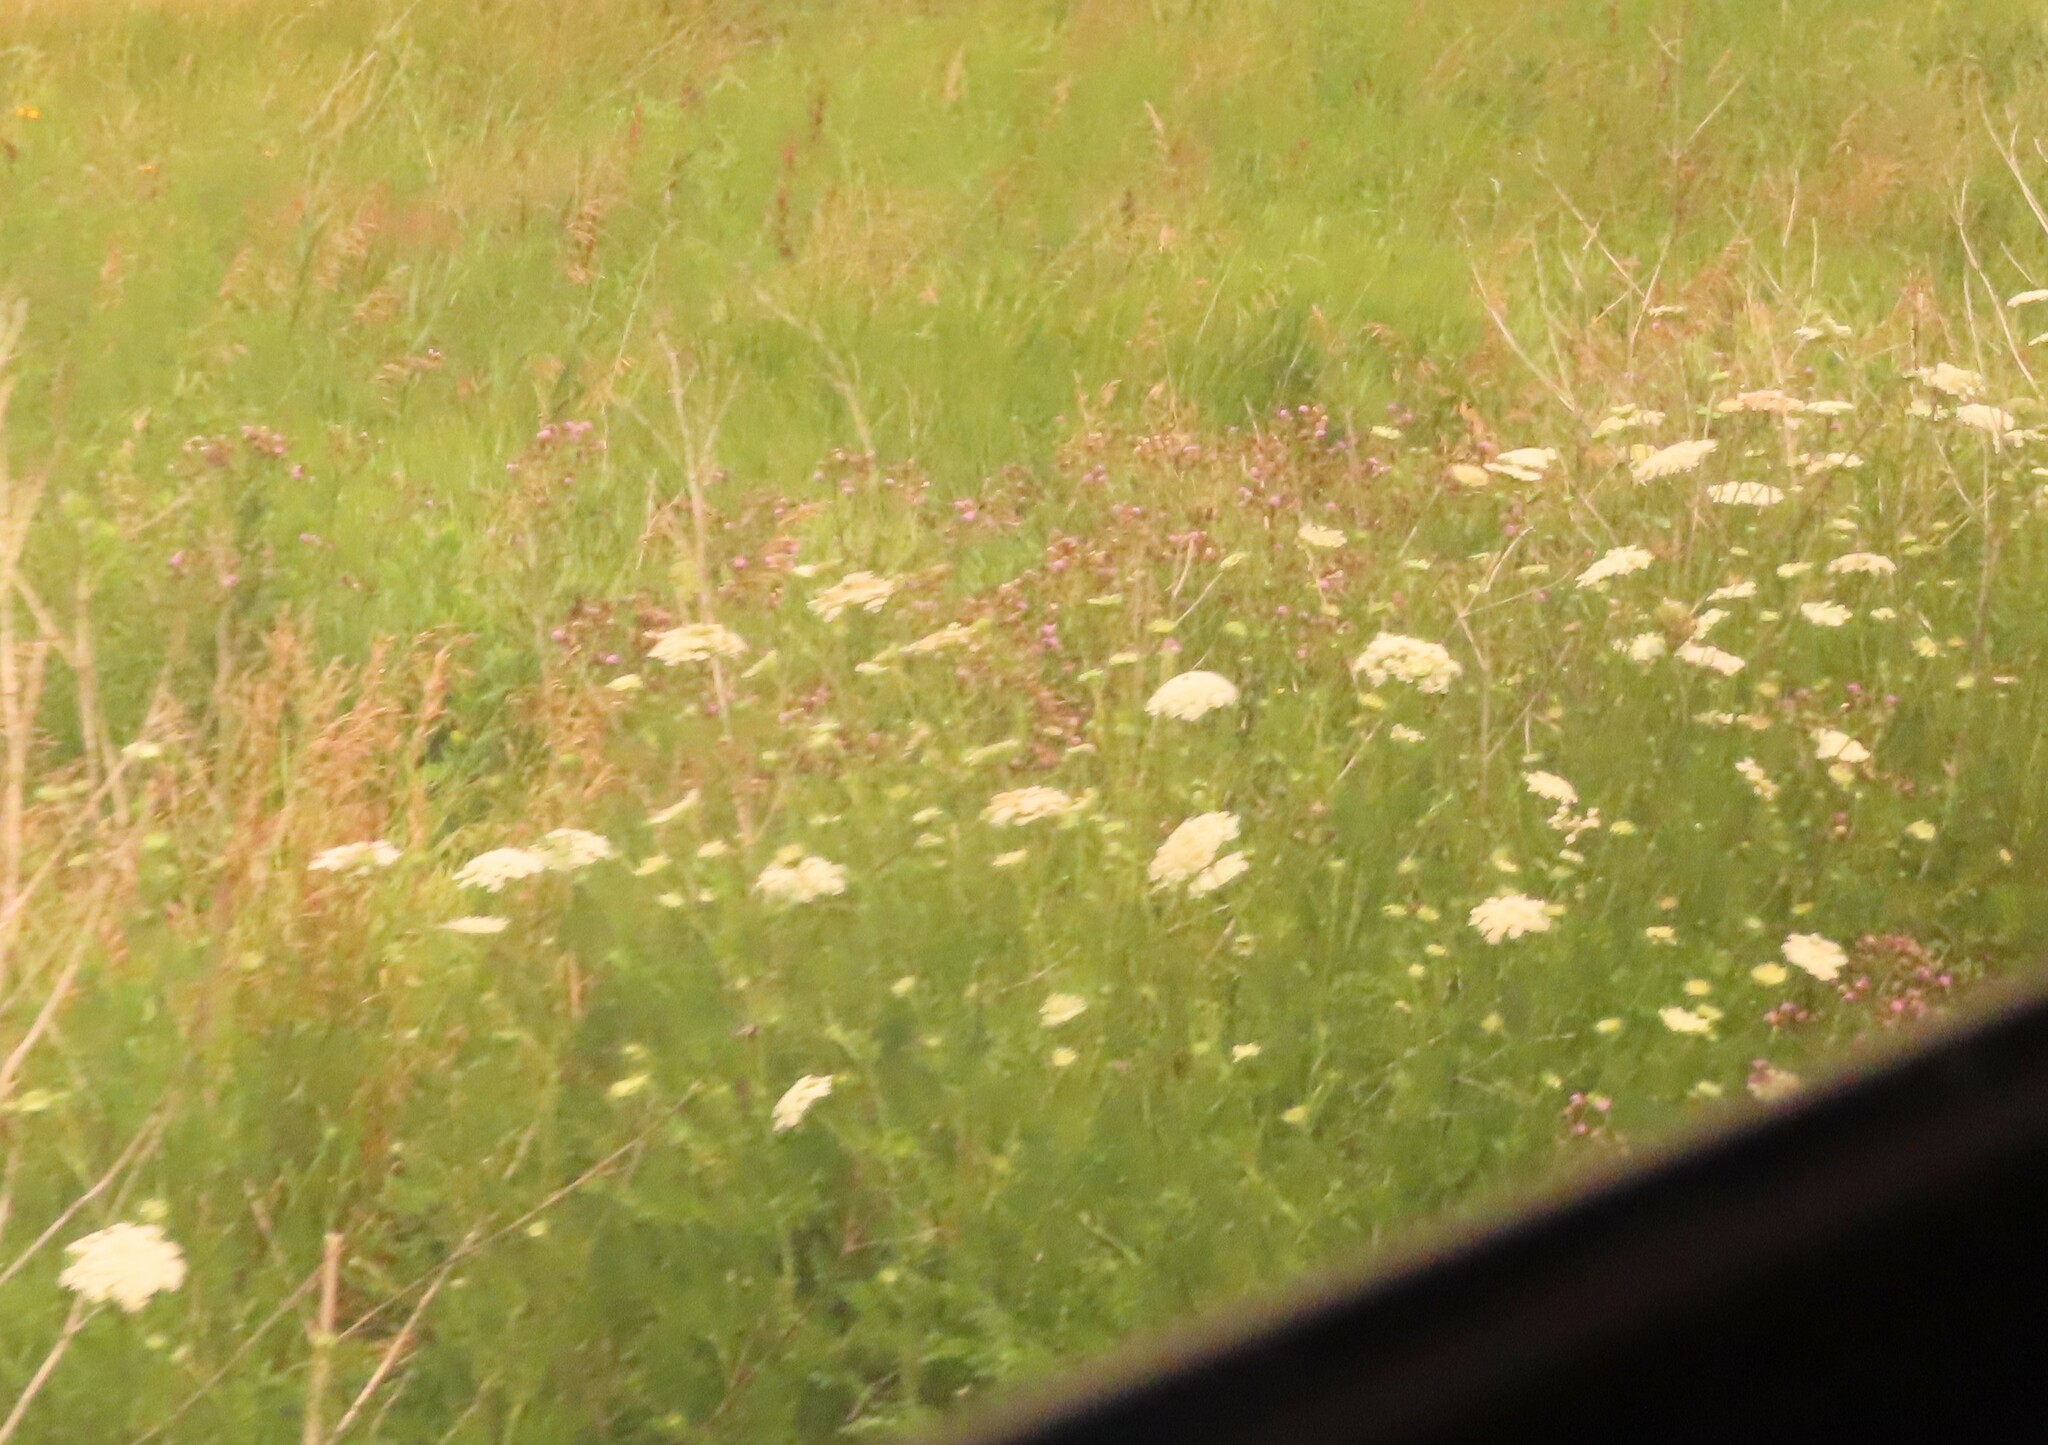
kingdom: Plantae
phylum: Tracheophyta
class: Magnoliopsida
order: Apiales
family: Apiaceae
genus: Daucus
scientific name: Daucus carota
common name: Wild carrot
